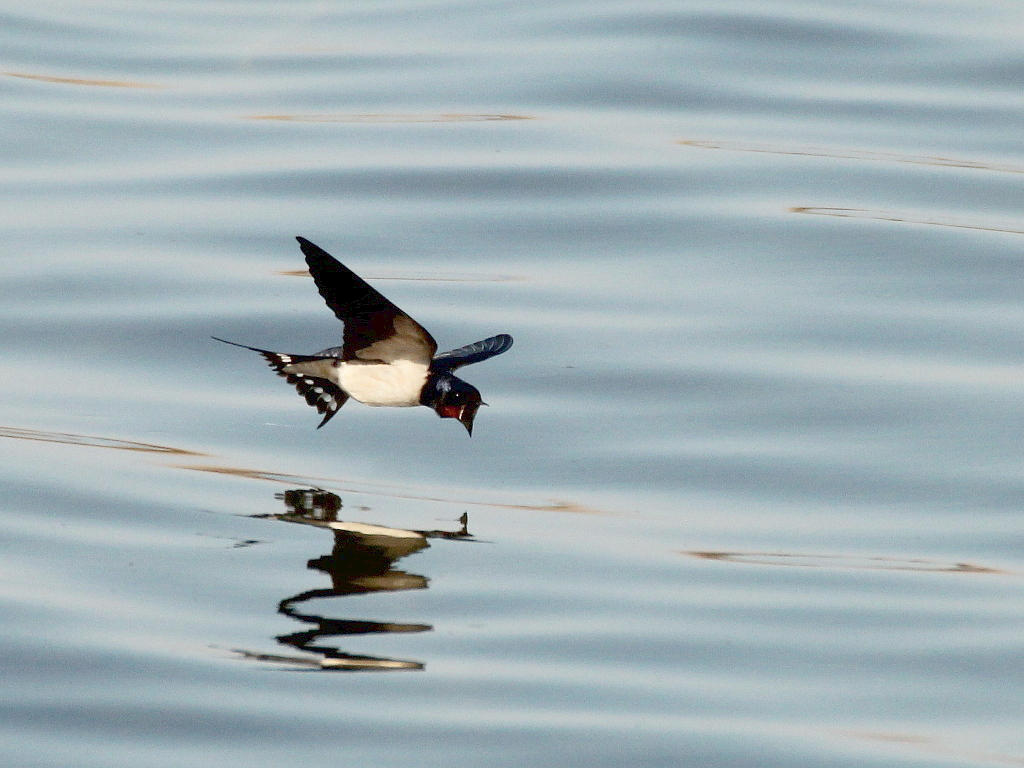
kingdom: Animalia
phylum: Chordata
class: Aves
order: Passeriformes
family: Hirundinidae
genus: Hirundo
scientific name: Hirundo rustica
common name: Barn swallow
